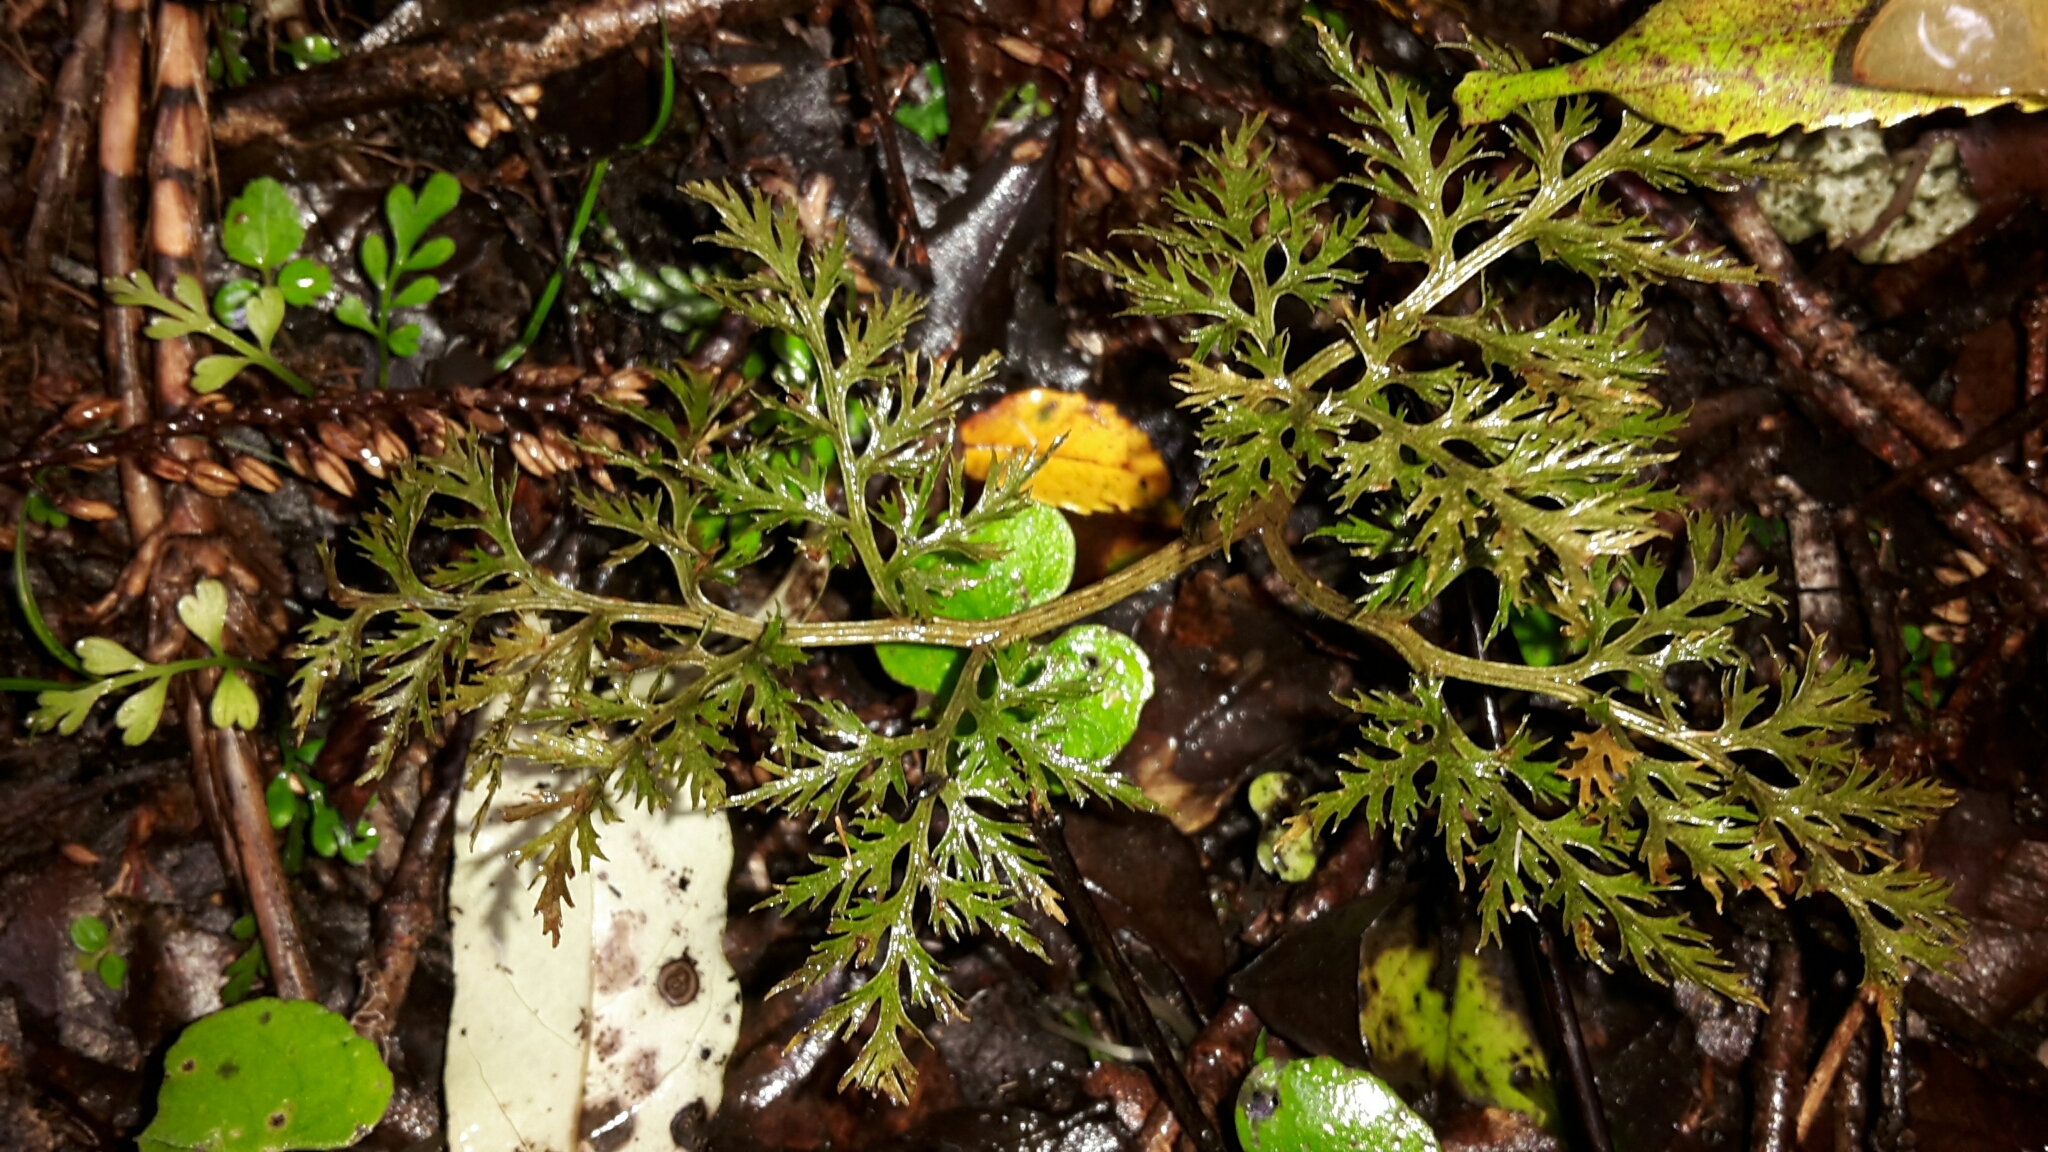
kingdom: Plantae
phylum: Tracheophyta
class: Polypodiopsida
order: Ophioglossales
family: Ophioglossaceae
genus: Sceptridium
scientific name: Sceptridium biforme
